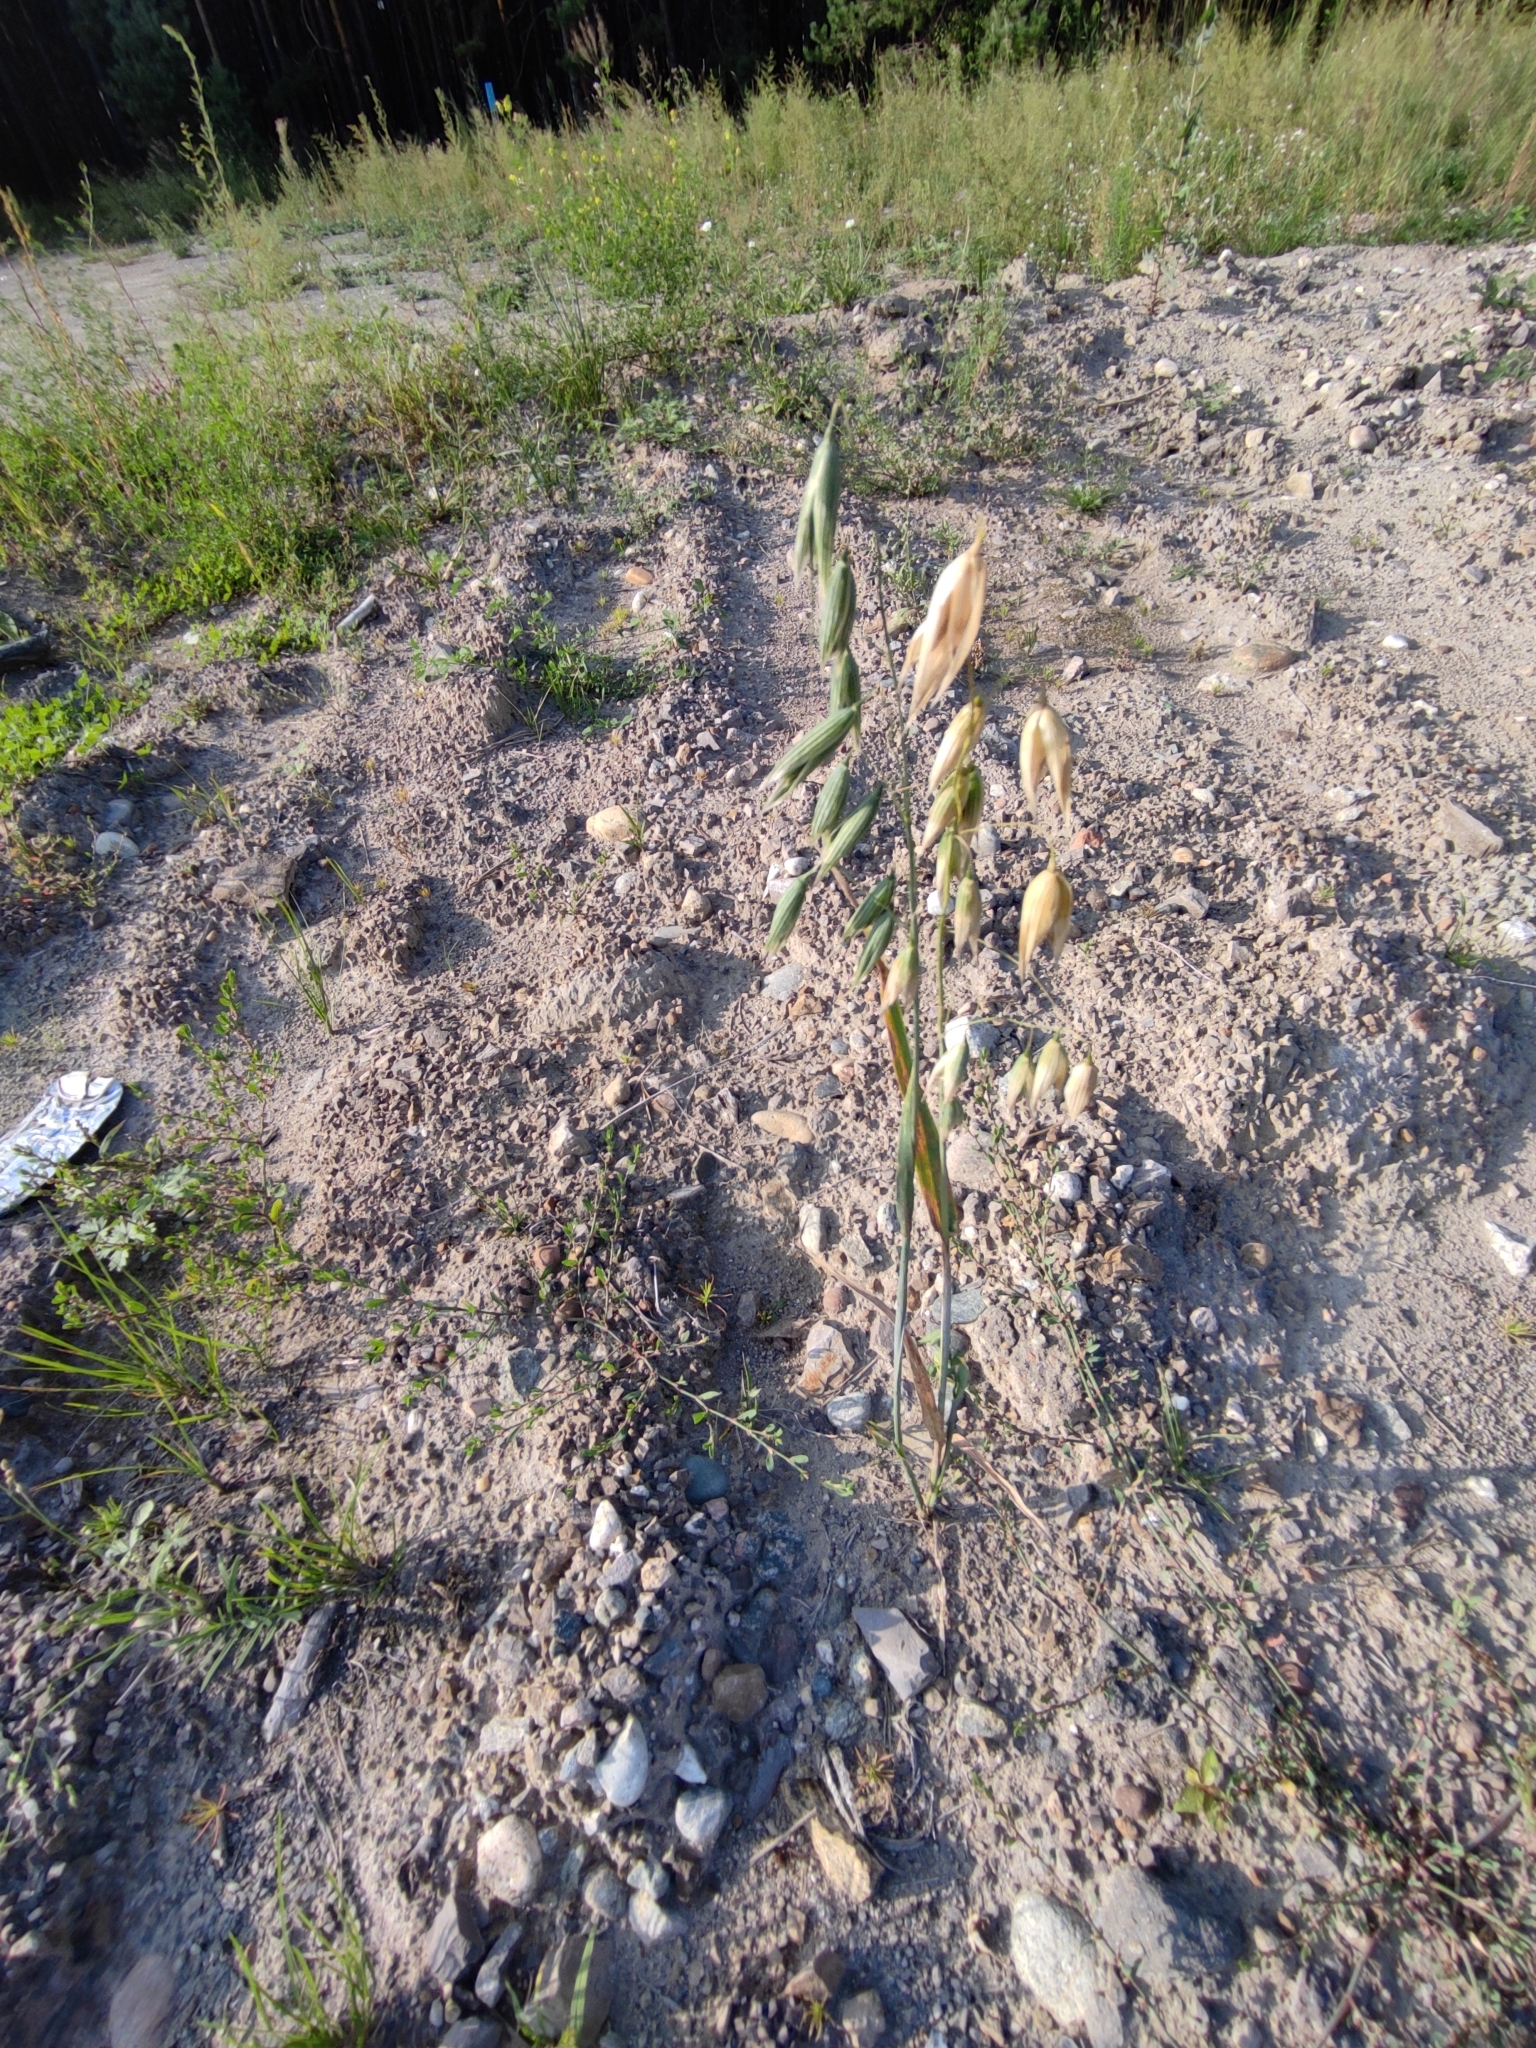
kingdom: Plantae
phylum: Tracheophyta
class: Liliopsida
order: Poales
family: Poaceae
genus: Avena
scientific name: Avena sativa
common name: Oat
